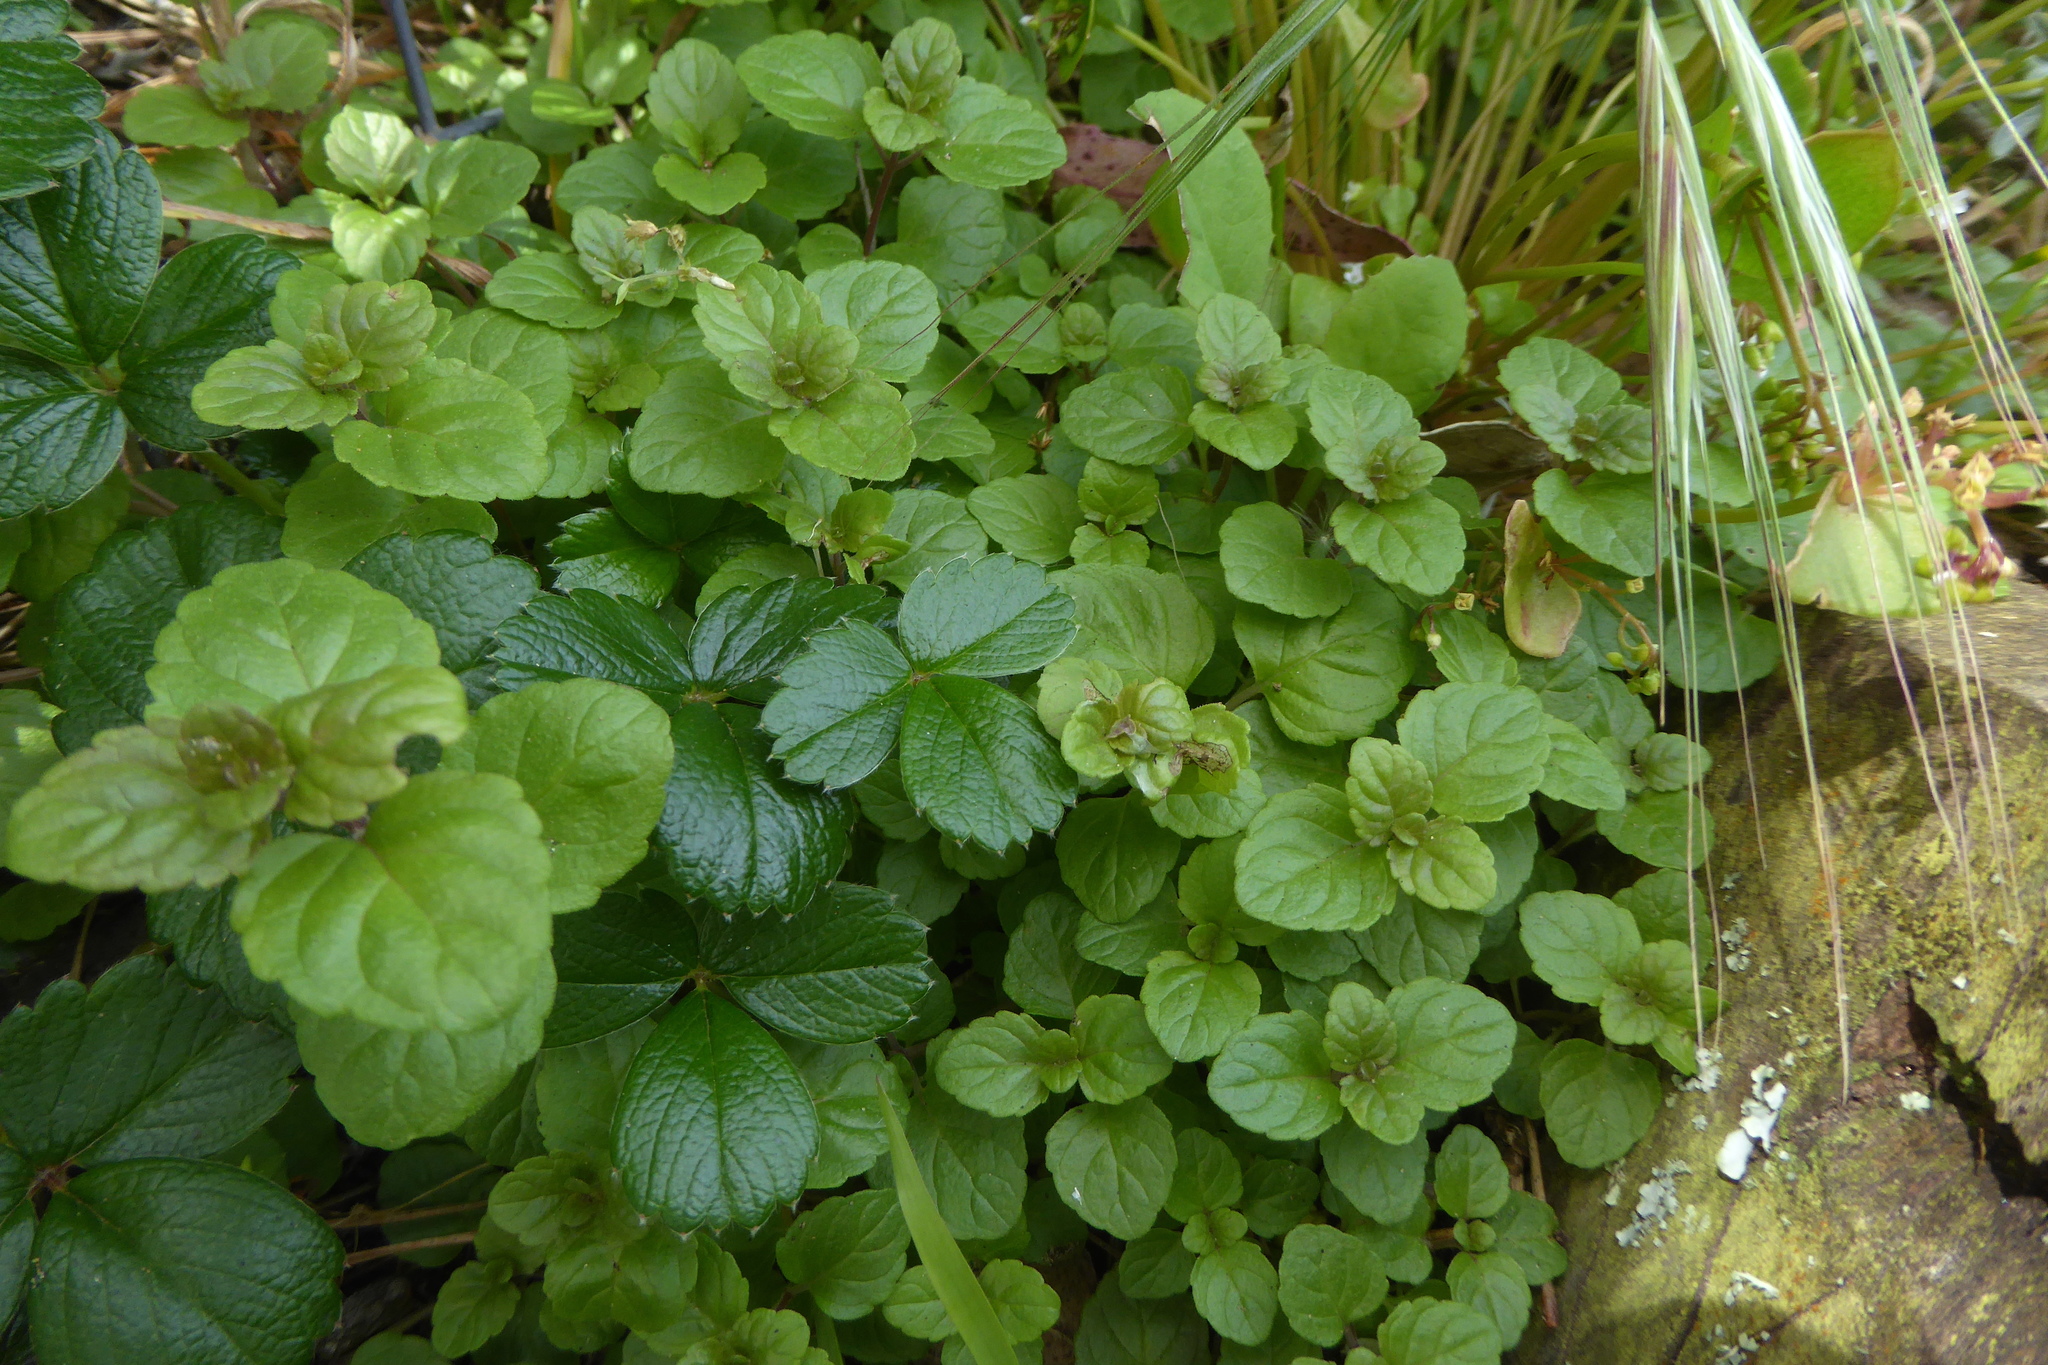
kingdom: Plantae
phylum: Tracheophyta
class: Magnoliopsida
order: Lamiales
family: Lamiaceae
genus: Micromeria
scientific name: Micromeria douglasii
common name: Yerba buena
